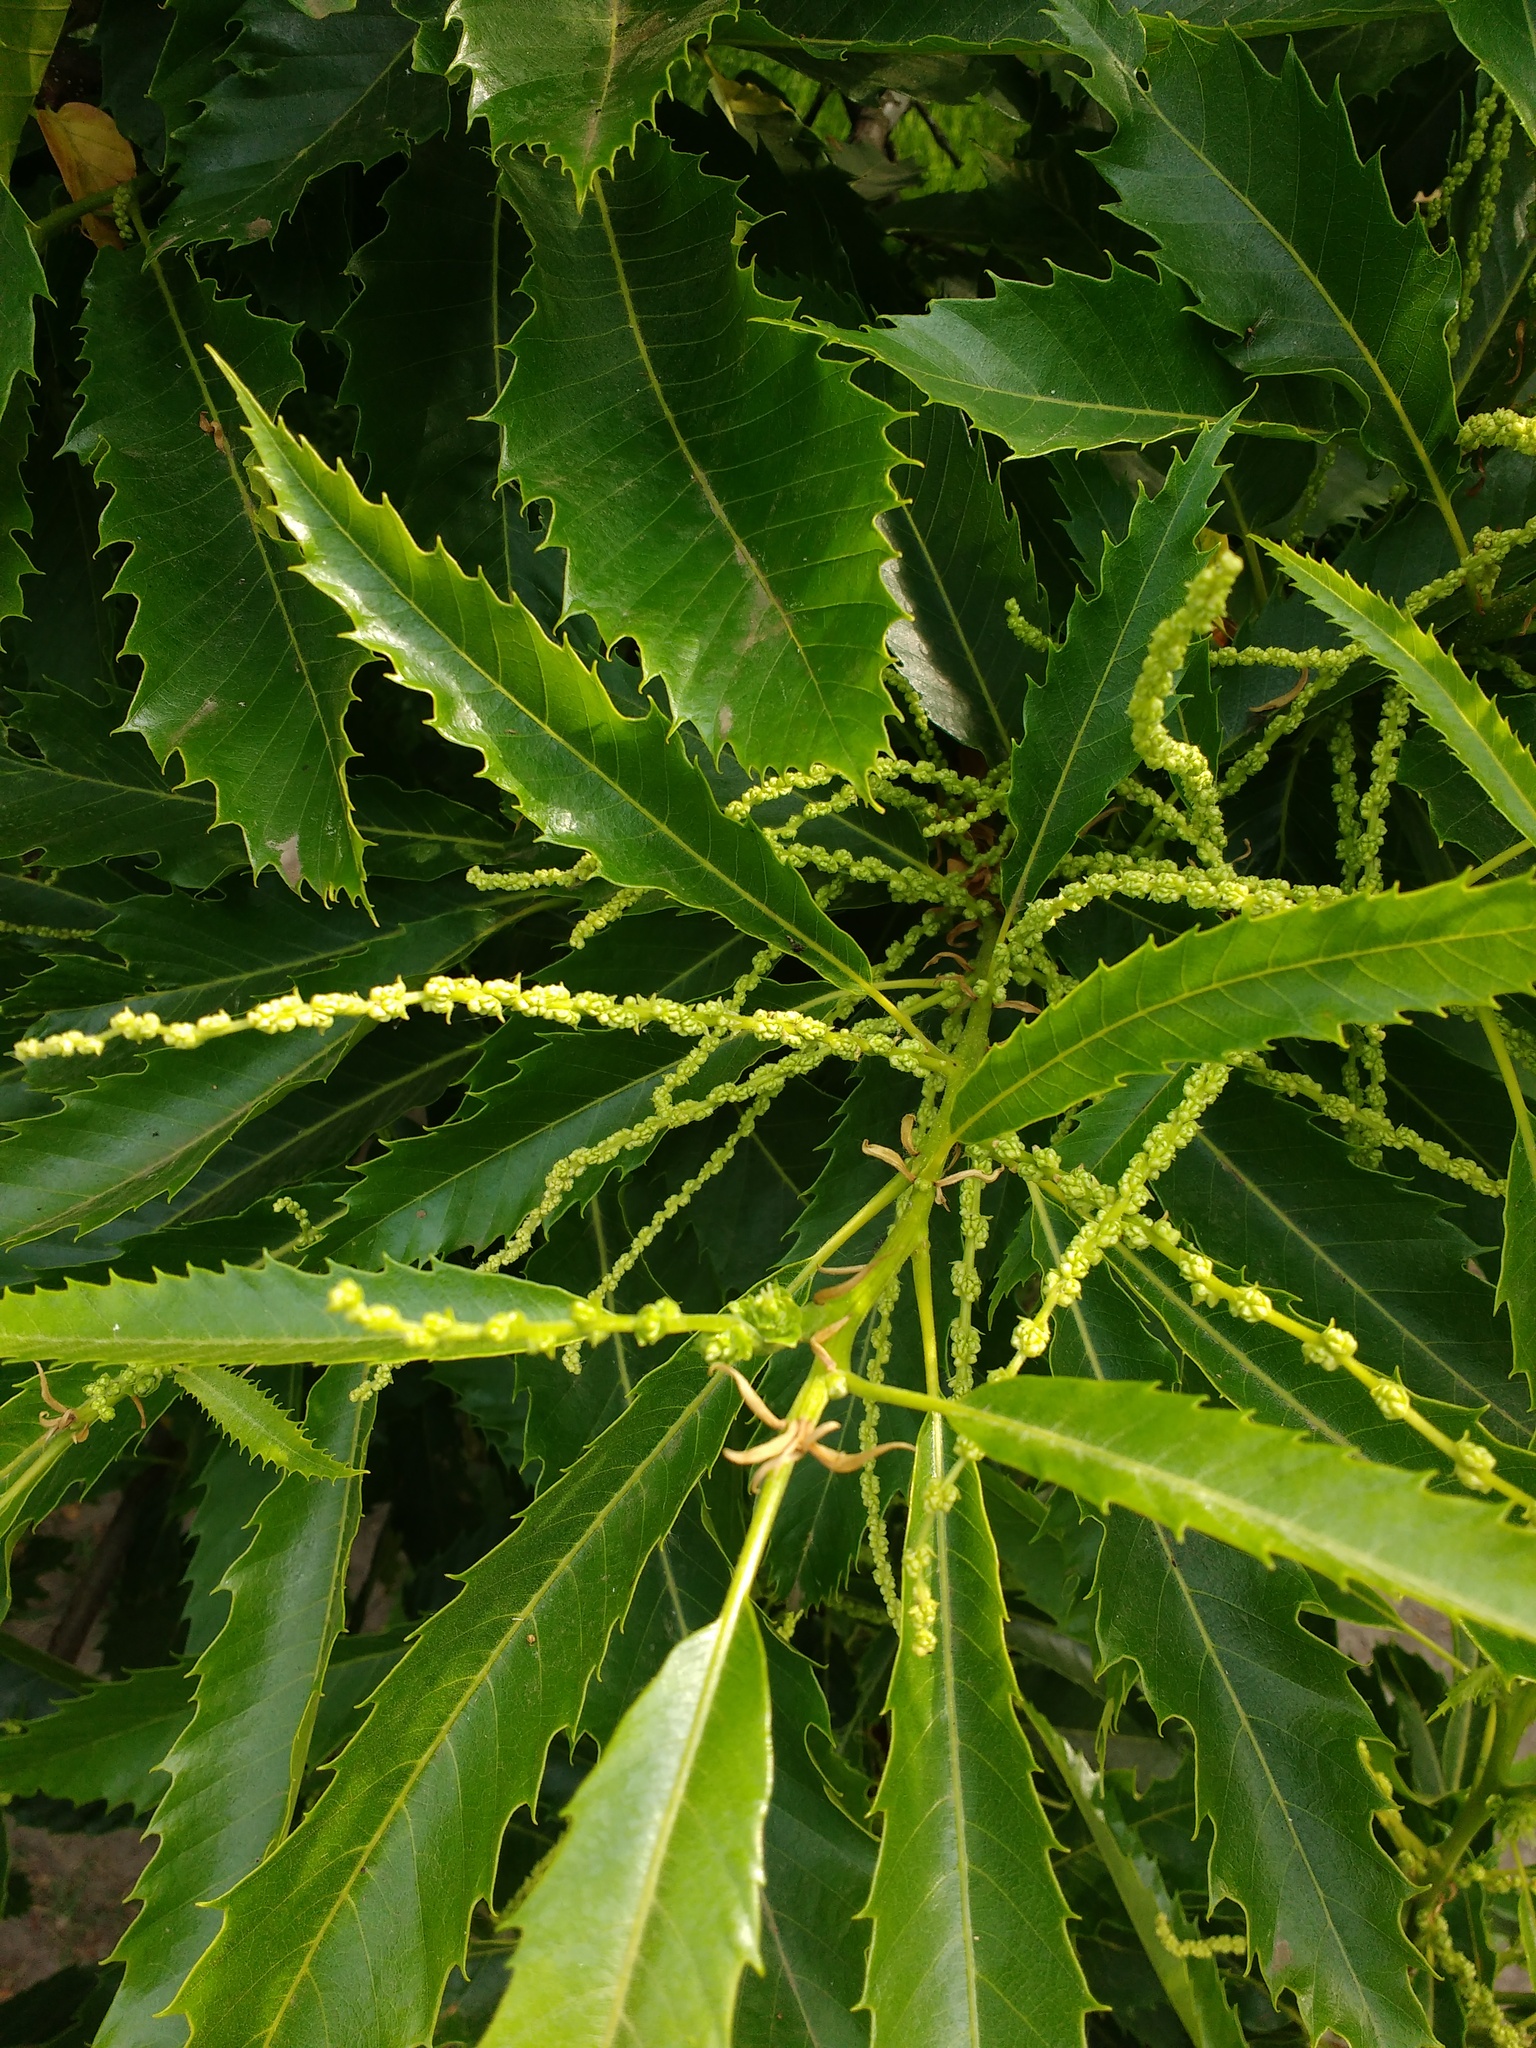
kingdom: Plantae
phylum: Tracheophyta
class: Magnoliopsida
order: Fagales
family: Fagaceae
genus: Castanea
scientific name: Castanea sativa
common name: Sweet chestnut
